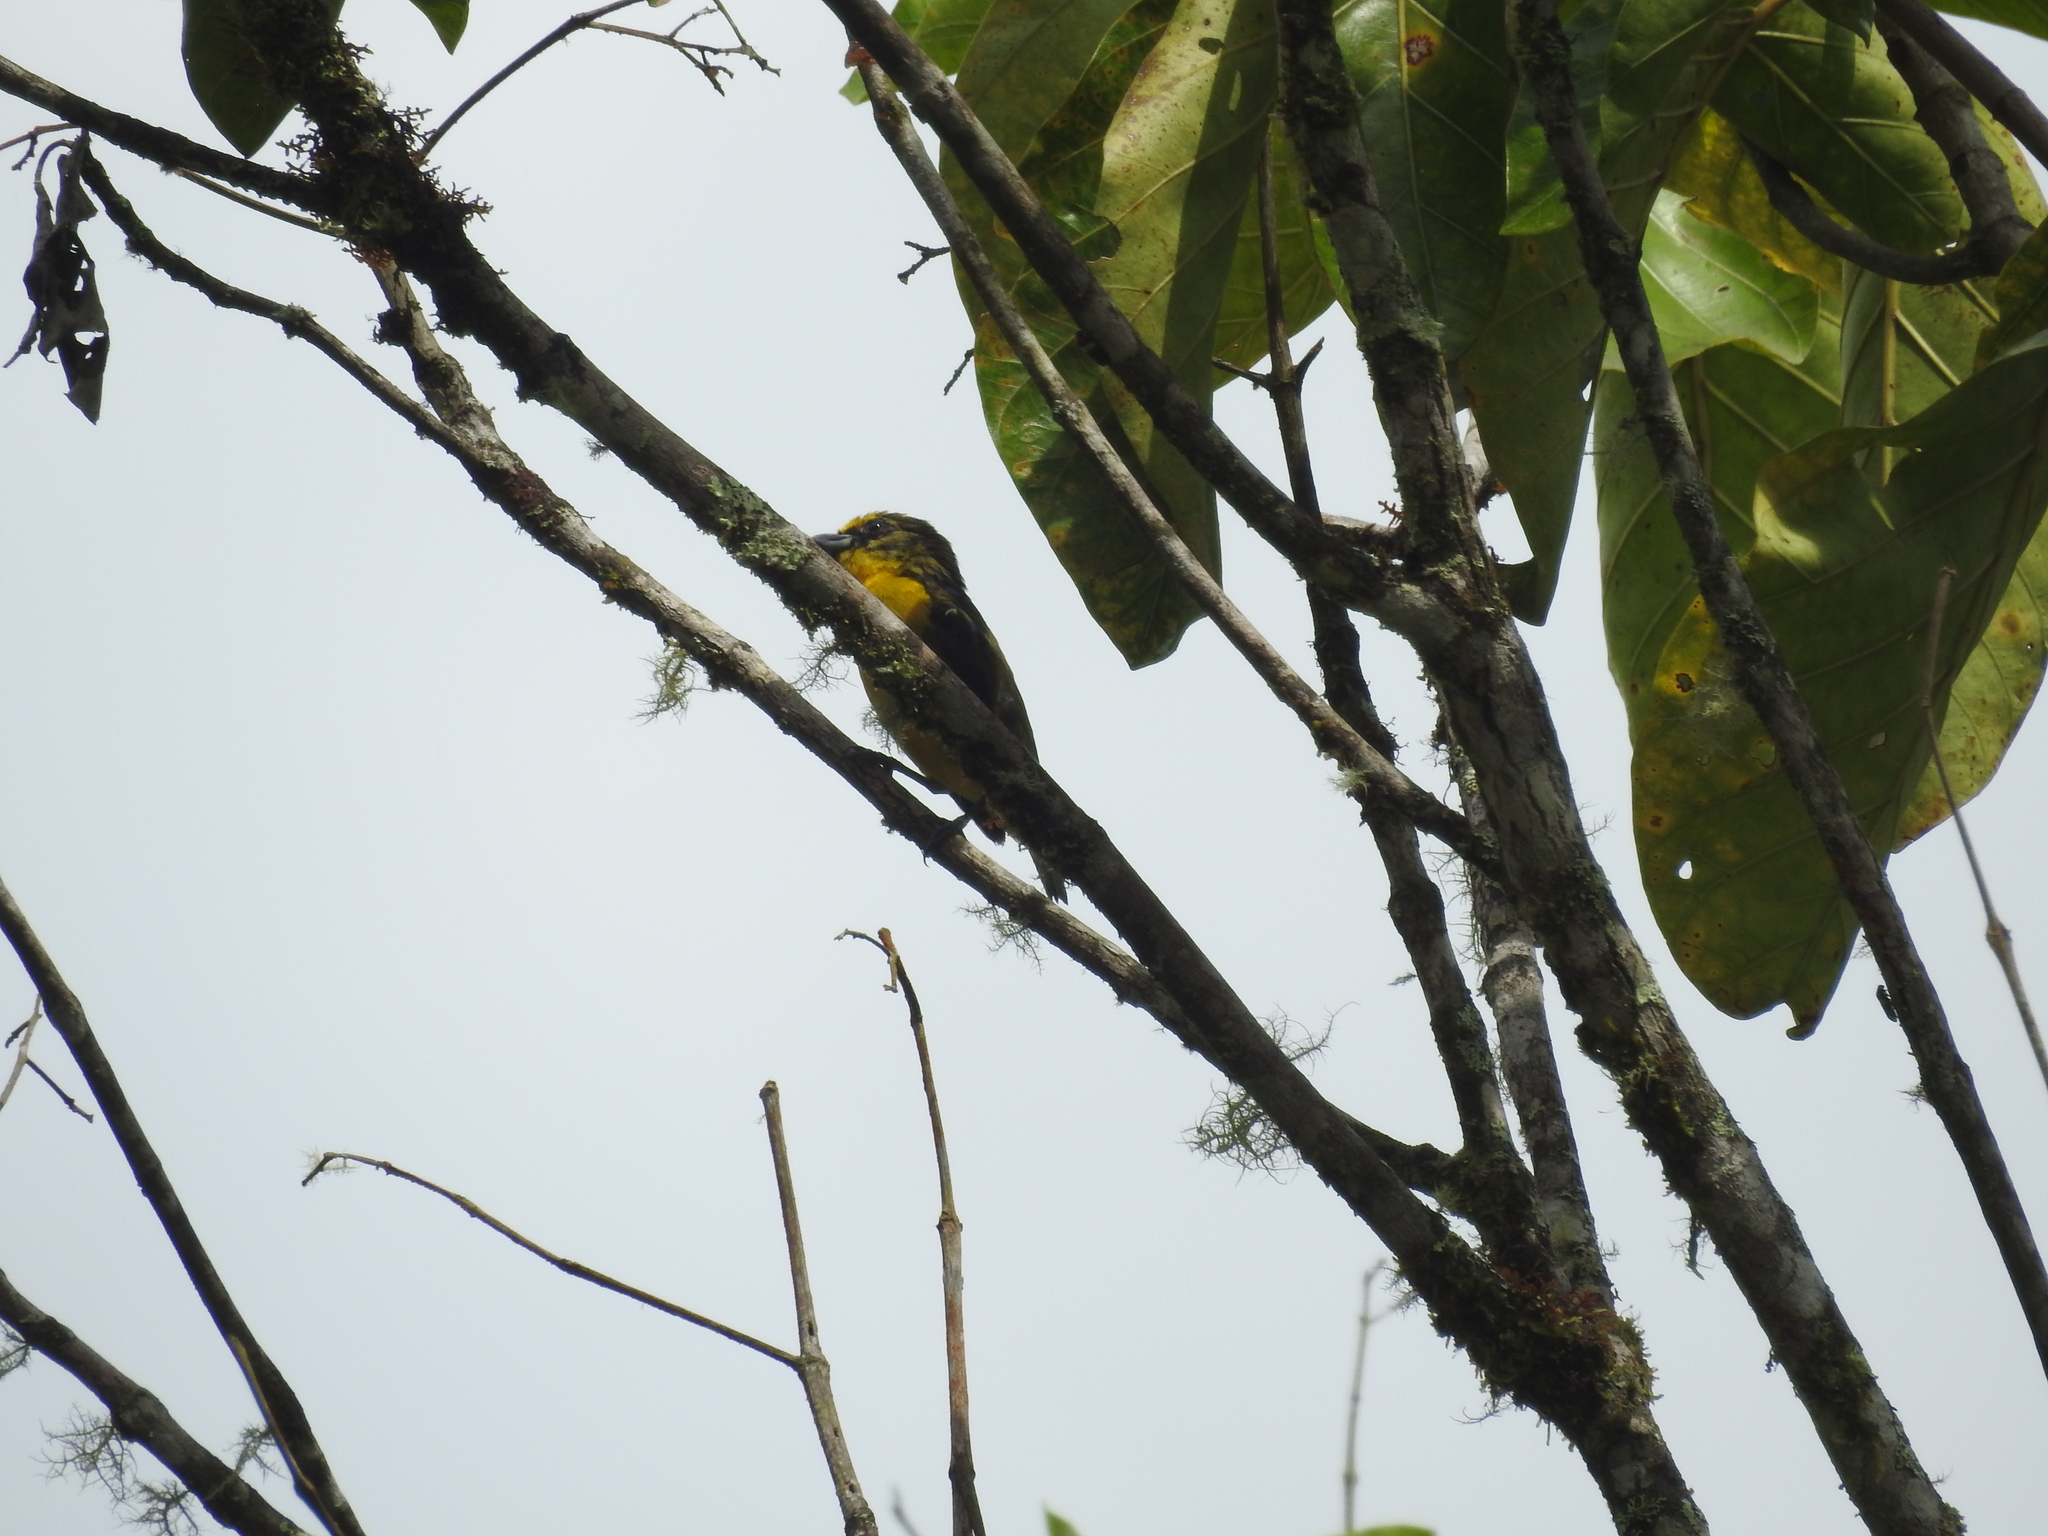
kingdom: Animalia
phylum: Chordata
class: Aves
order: Passeriformes
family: Fringillidae
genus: Euphonia
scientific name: Euphonia laniirostris
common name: Thick-billed euphonia
